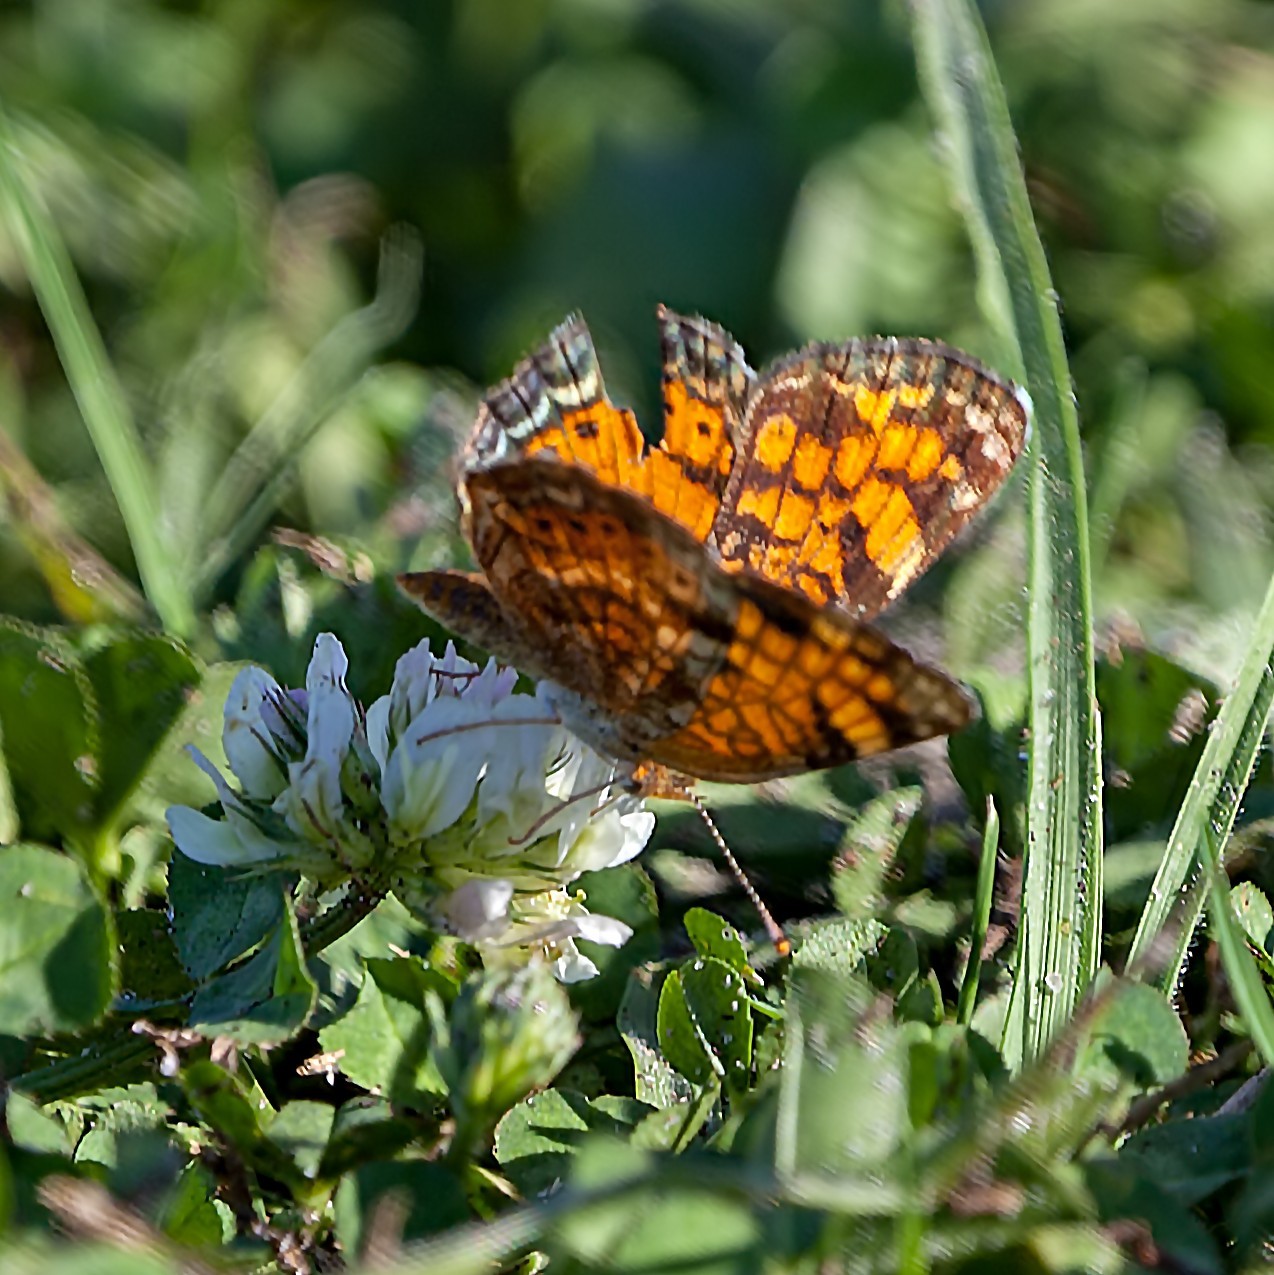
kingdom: Animalia
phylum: Arthropoda
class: Insecta
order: Lepidoptera
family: Nymphalidae
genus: Phyciodes
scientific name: Phyciodes tharos
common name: Pearl crescent
